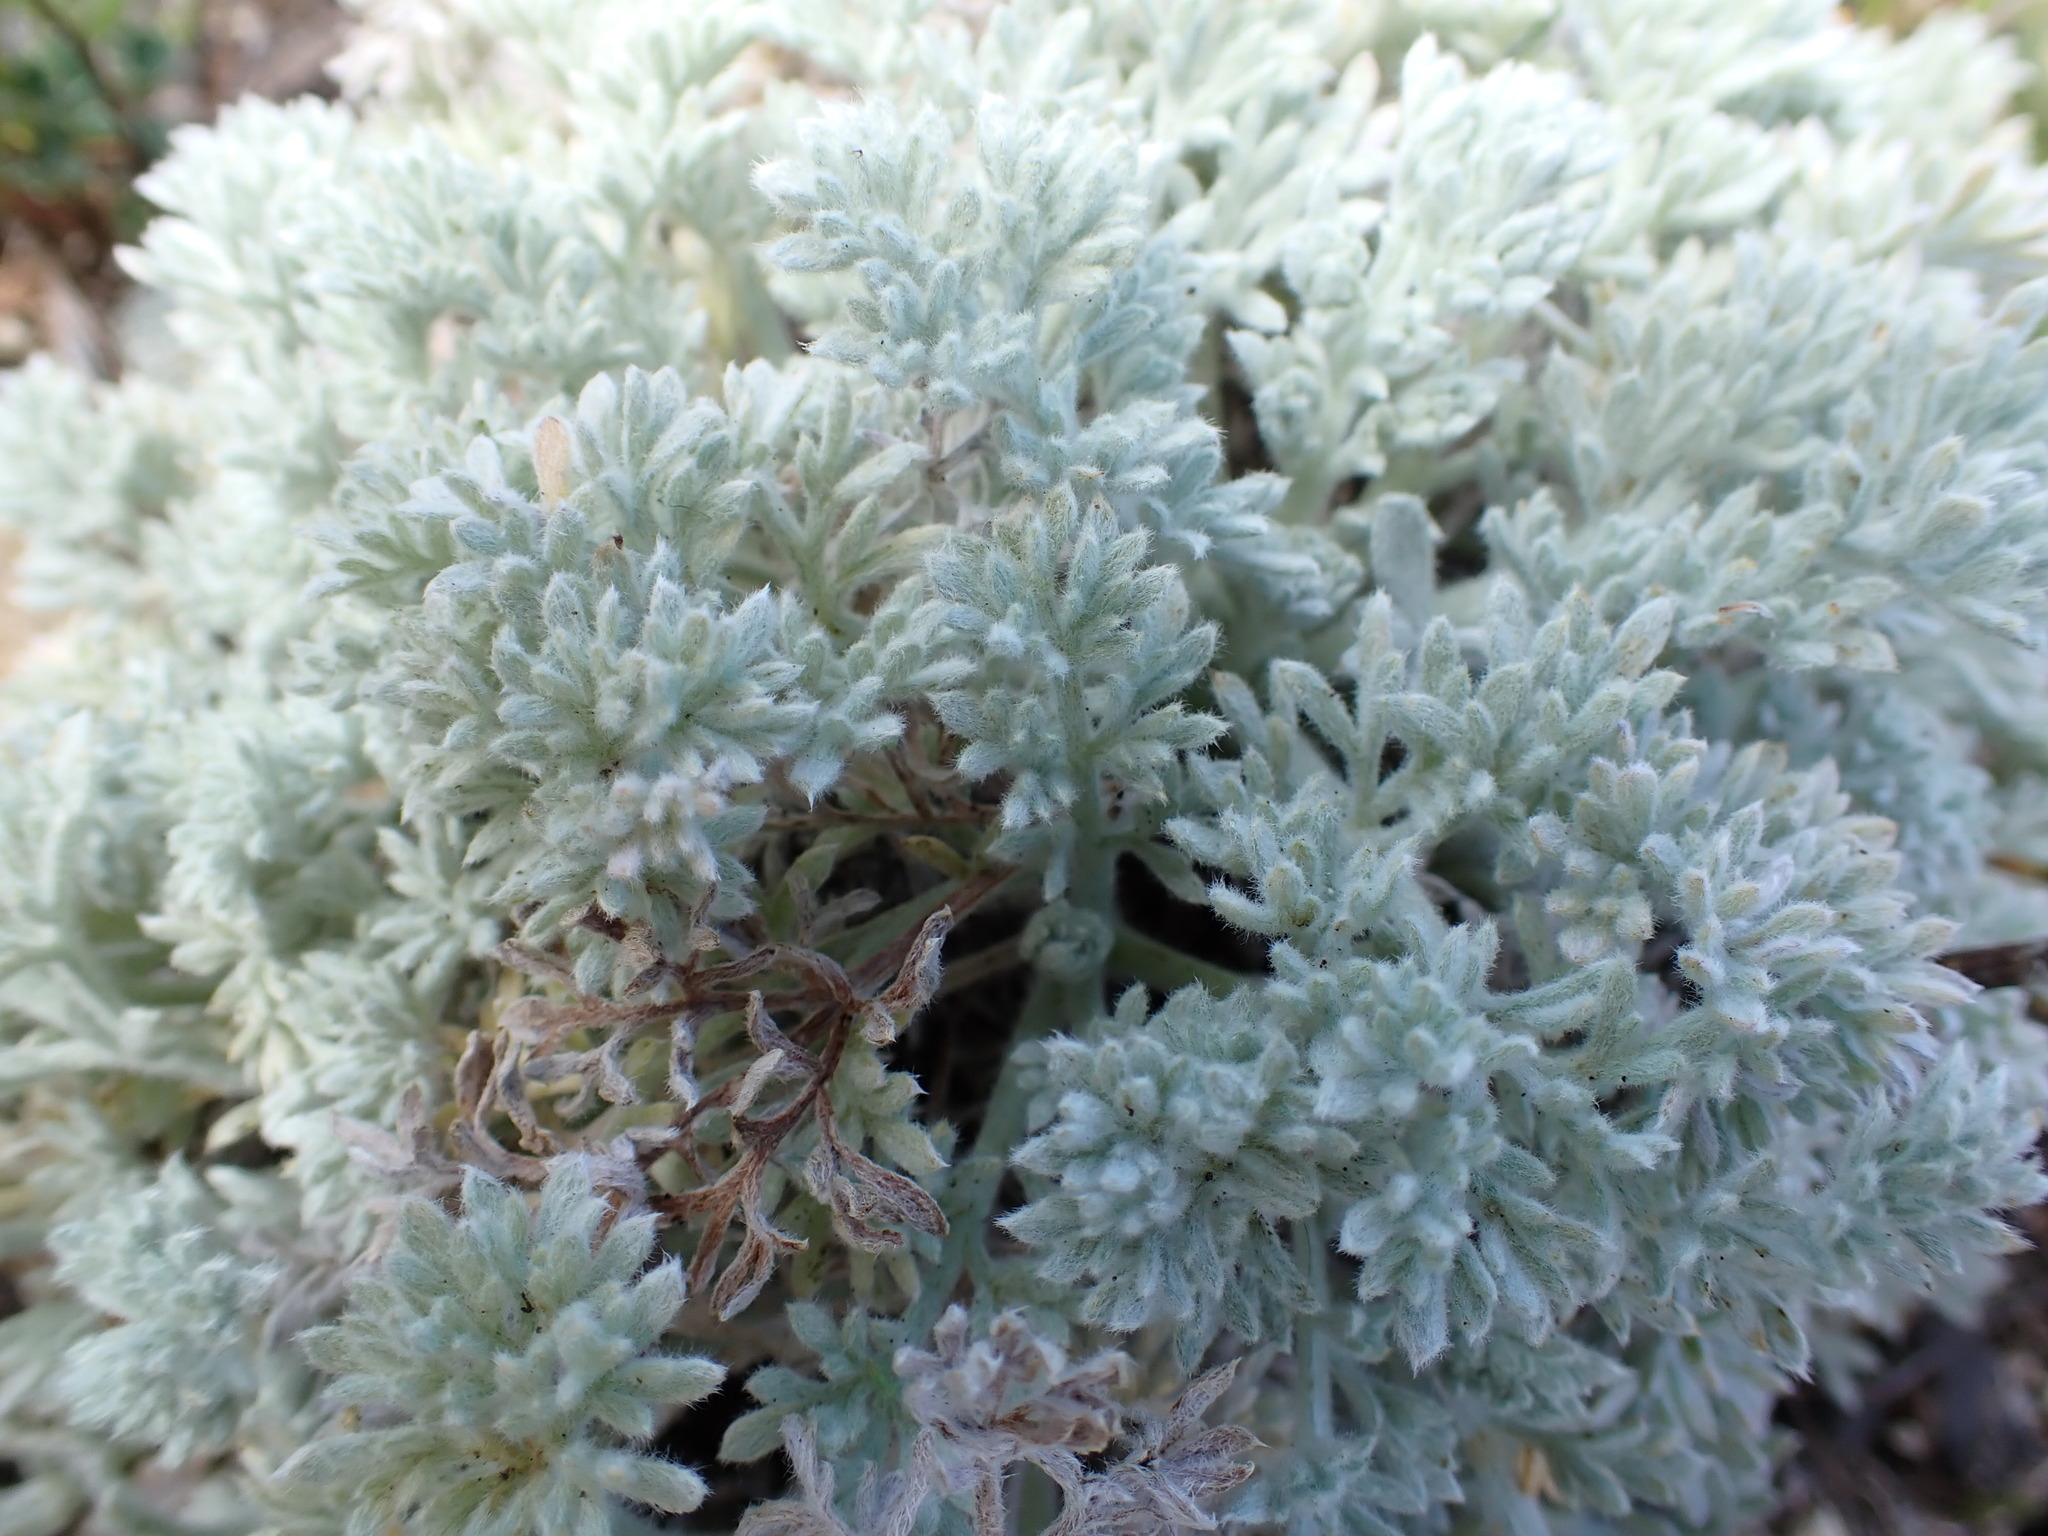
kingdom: Plantae
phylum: Tracheophyta
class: Magnoliopsida
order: Asterales
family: Asteraceae
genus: Artemisia
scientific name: Artemisia pycnocephala
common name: Coastal sagewort
